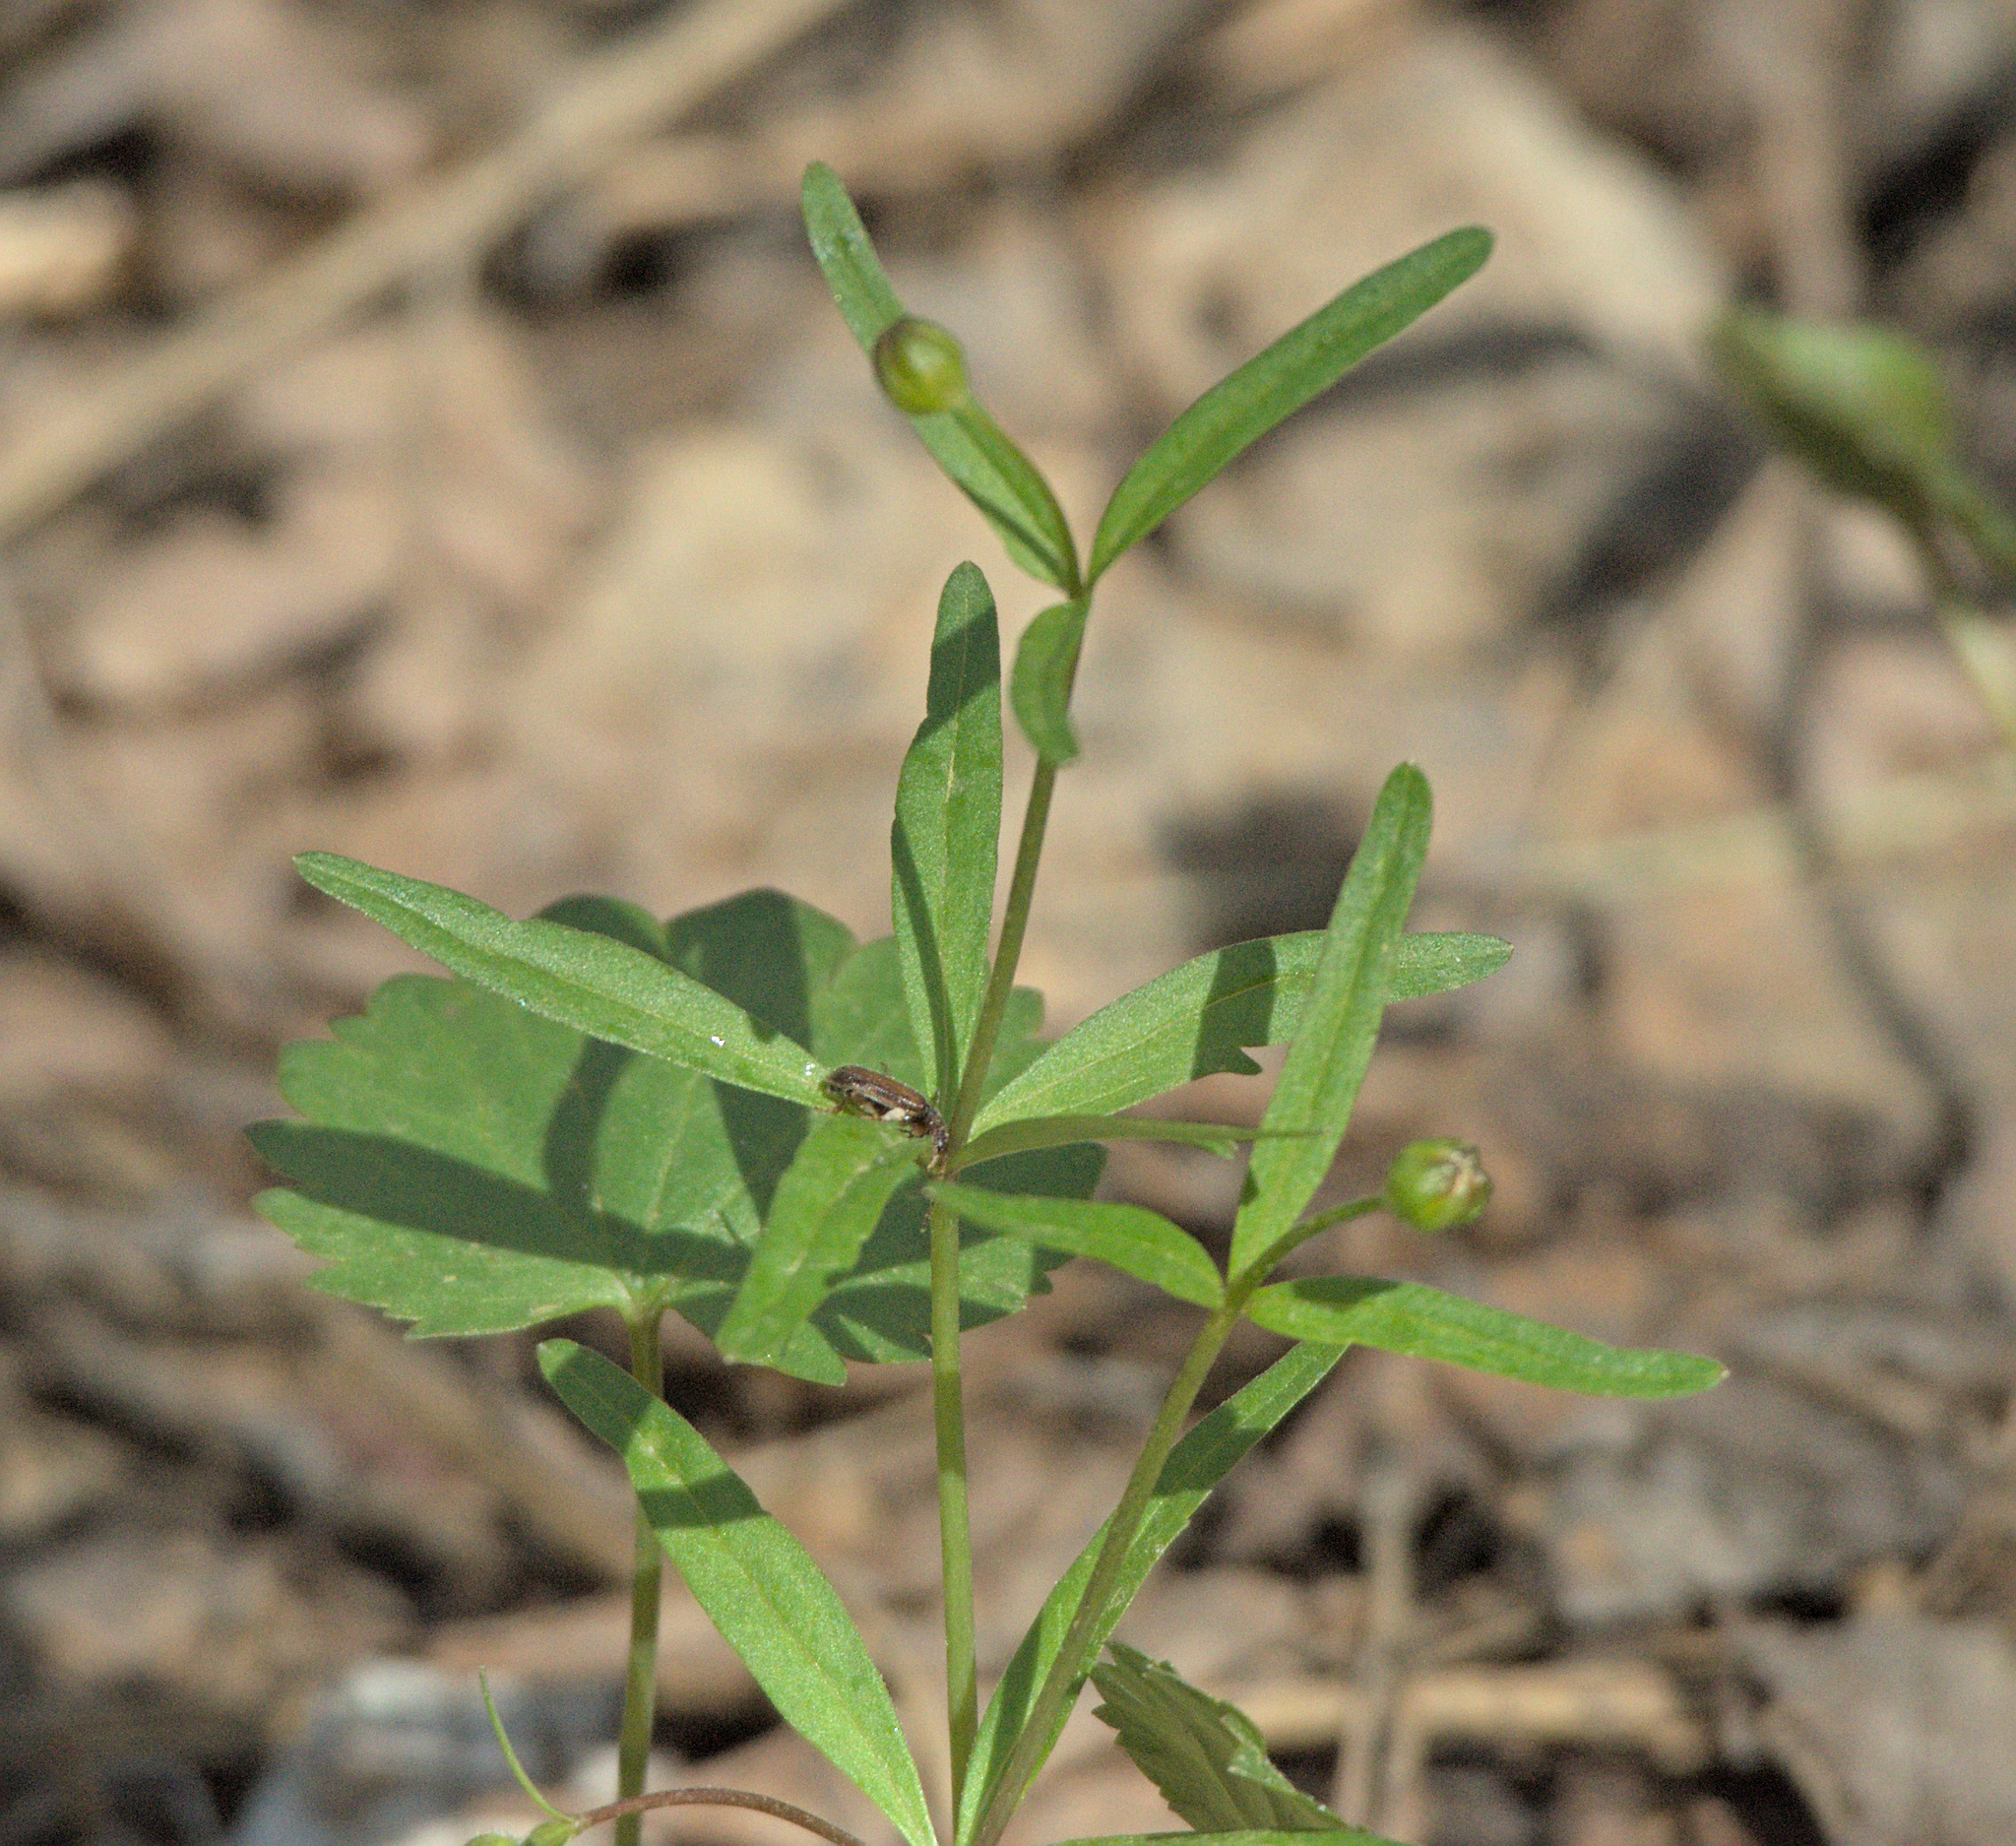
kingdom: Plantae
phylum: Tracheophyta
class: Magnoliopsida
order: Ranunculales
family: Ranunculaceae
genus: Ranunculus
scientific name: Ranunculus monophyllus
